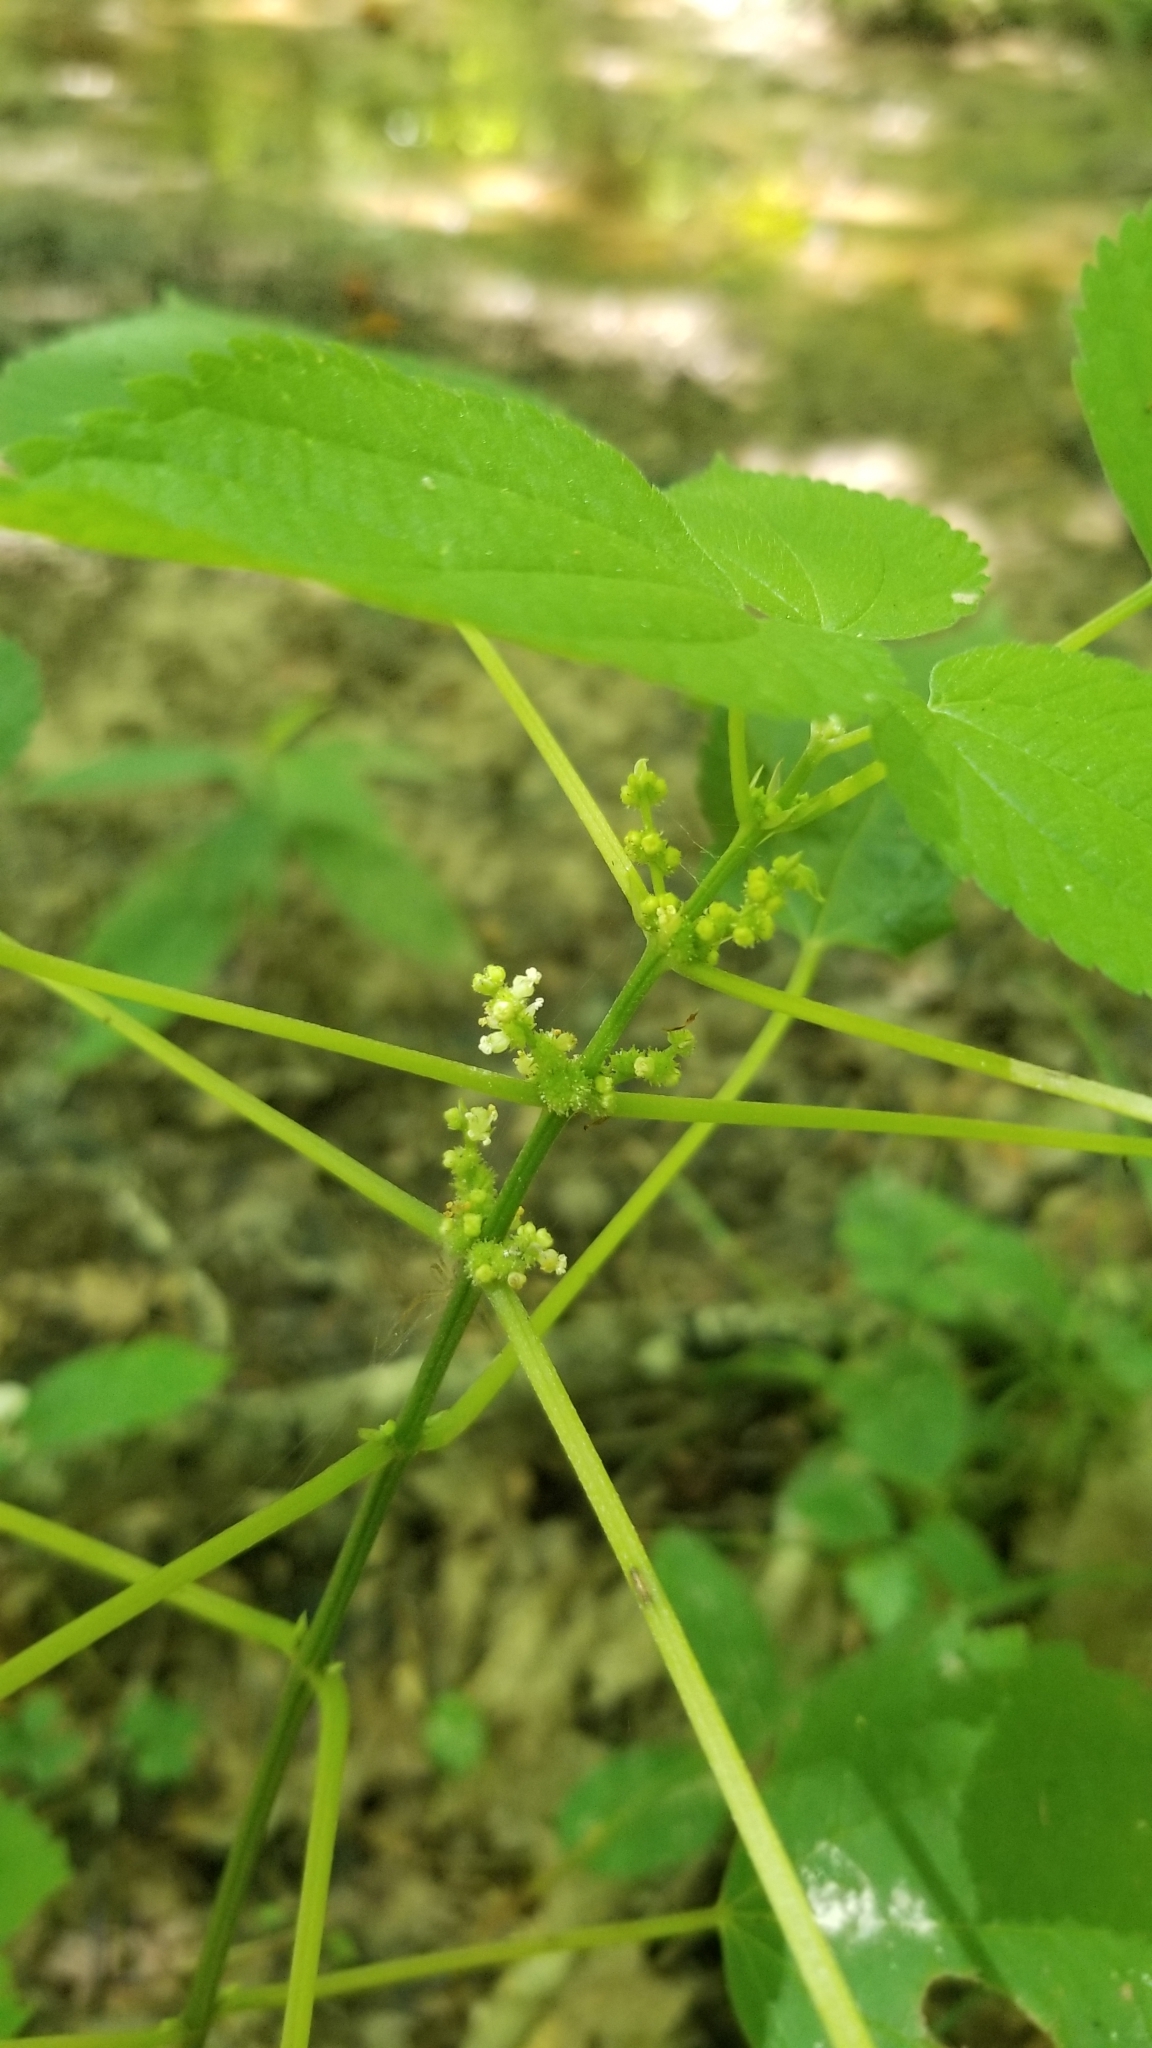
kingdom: Plantae
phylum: Tracheophyta
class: Magnoliopsida
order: Rosales
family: Urticaceae
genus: Boehmeria
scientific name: Boehmeria cylindrica
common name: Bog-hemp
